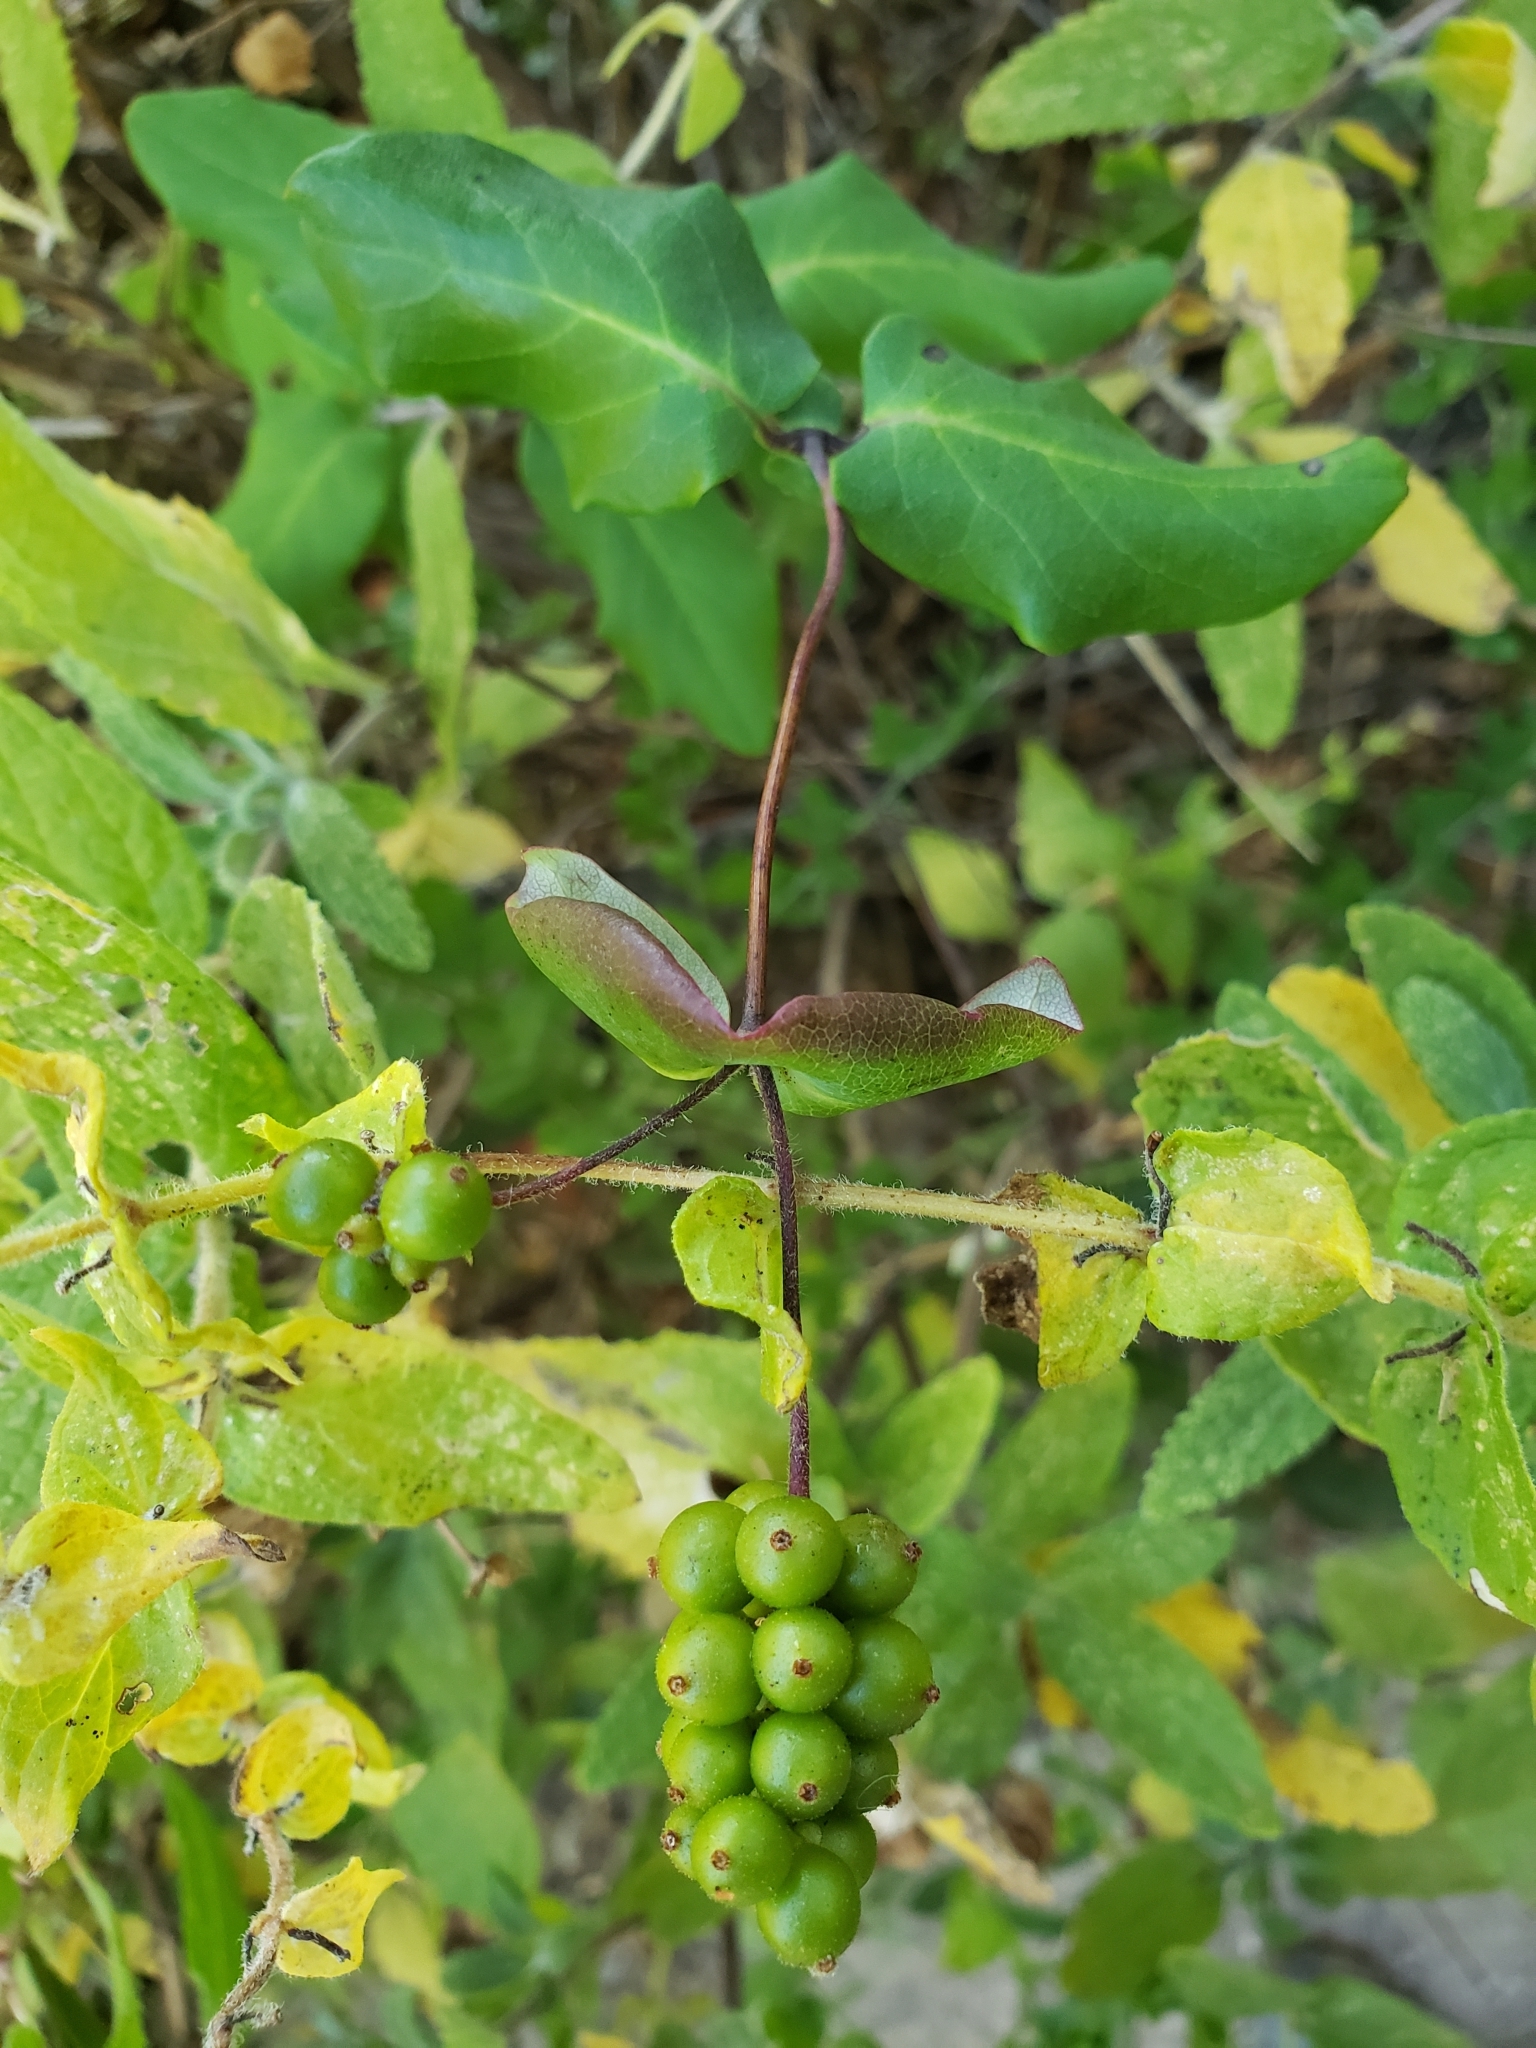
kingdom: Plantae
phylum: Tracheophyta
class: Magnoliopsida
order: Dipsacales
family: Caprifoliaceae
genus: Lonicera
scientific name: Lonicera hispidula
